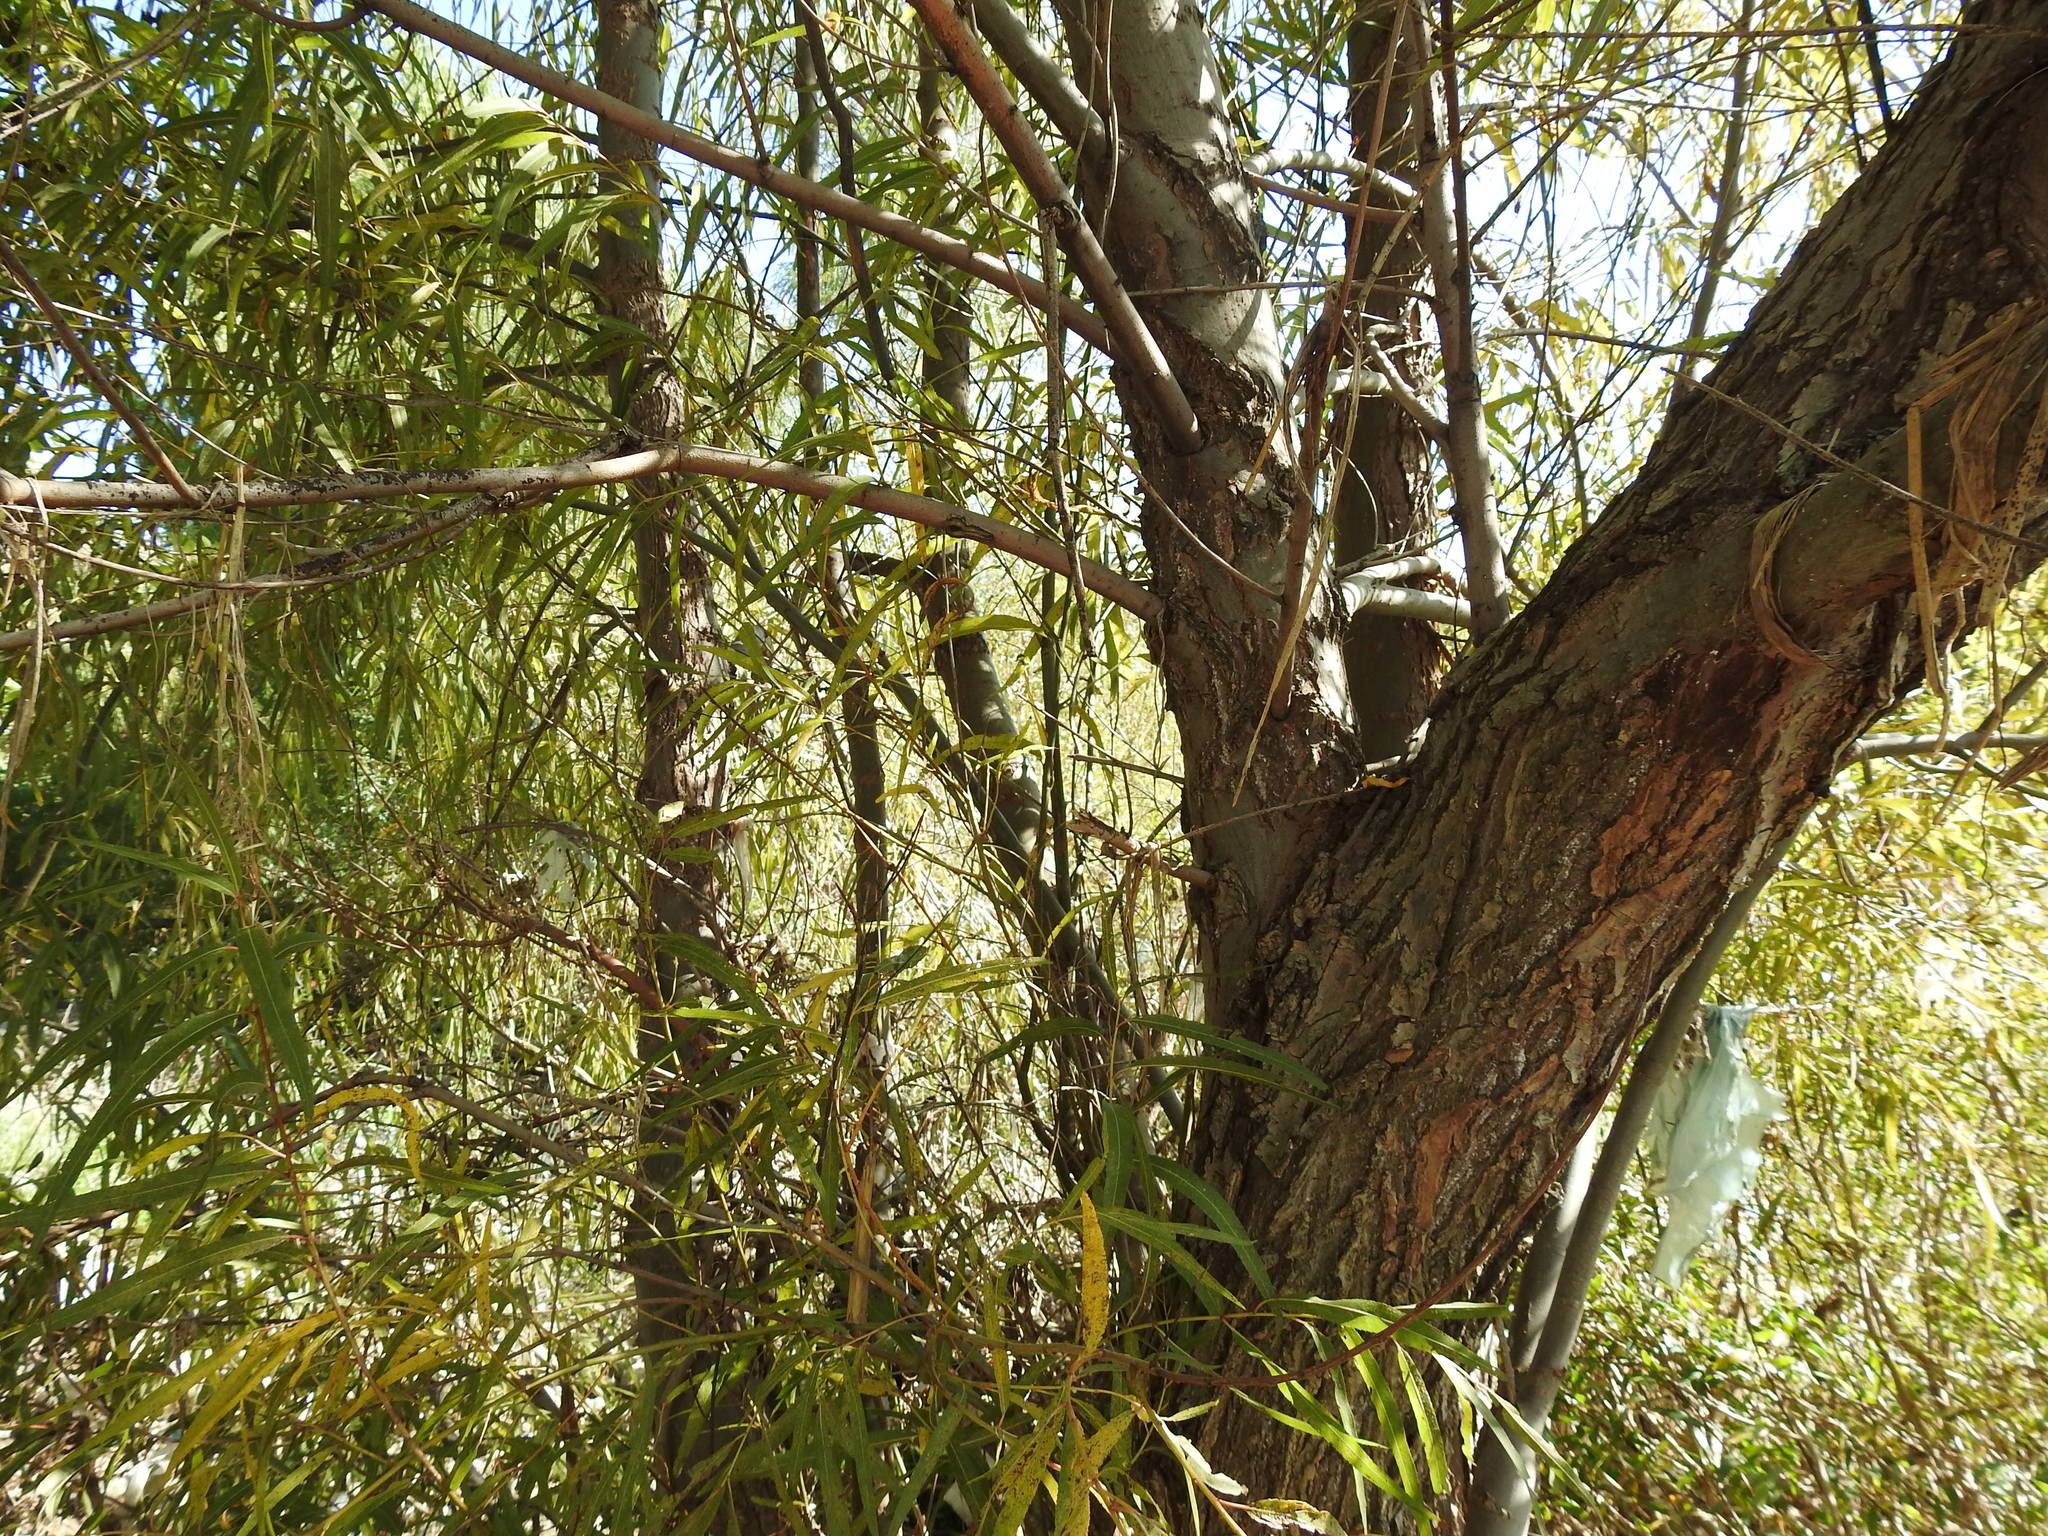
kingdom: Plantae
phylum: Tracheophyta
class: Magnoliopsida
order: Malpighiales
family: Salicaceae
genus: Salix
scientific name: Salix humboldtiana
